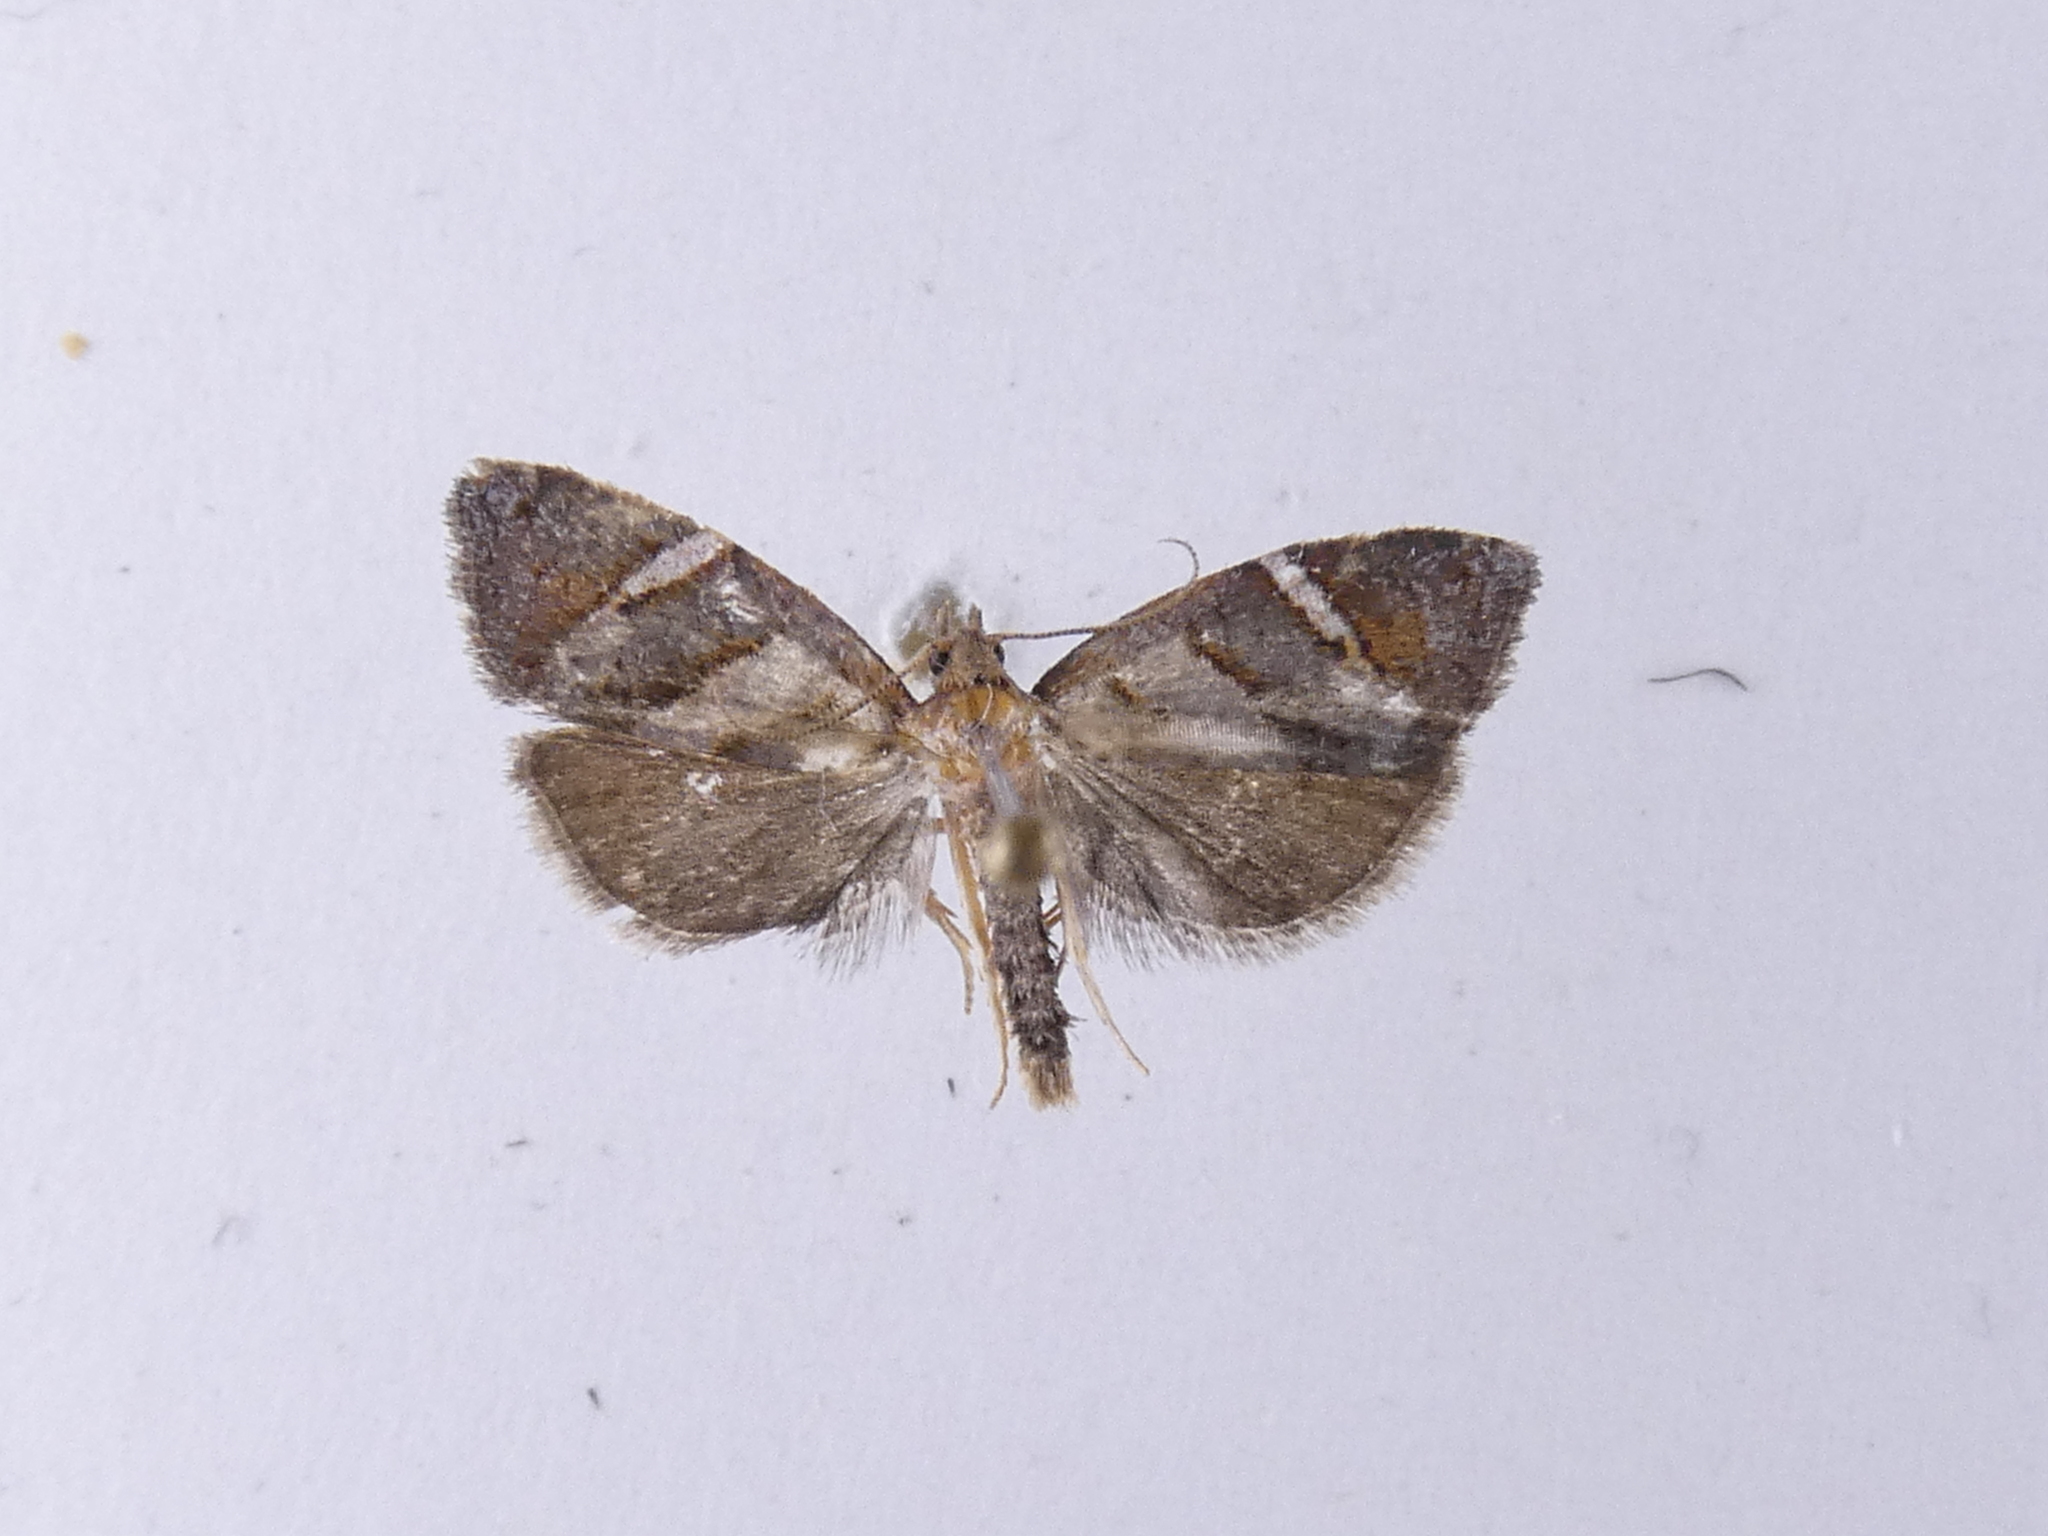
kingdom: Animalia
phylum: Arthropoda
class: Insecta
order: Lepidoptera
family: Tortricidae
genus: Ecclitica
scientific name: Ecclitica torogramma
